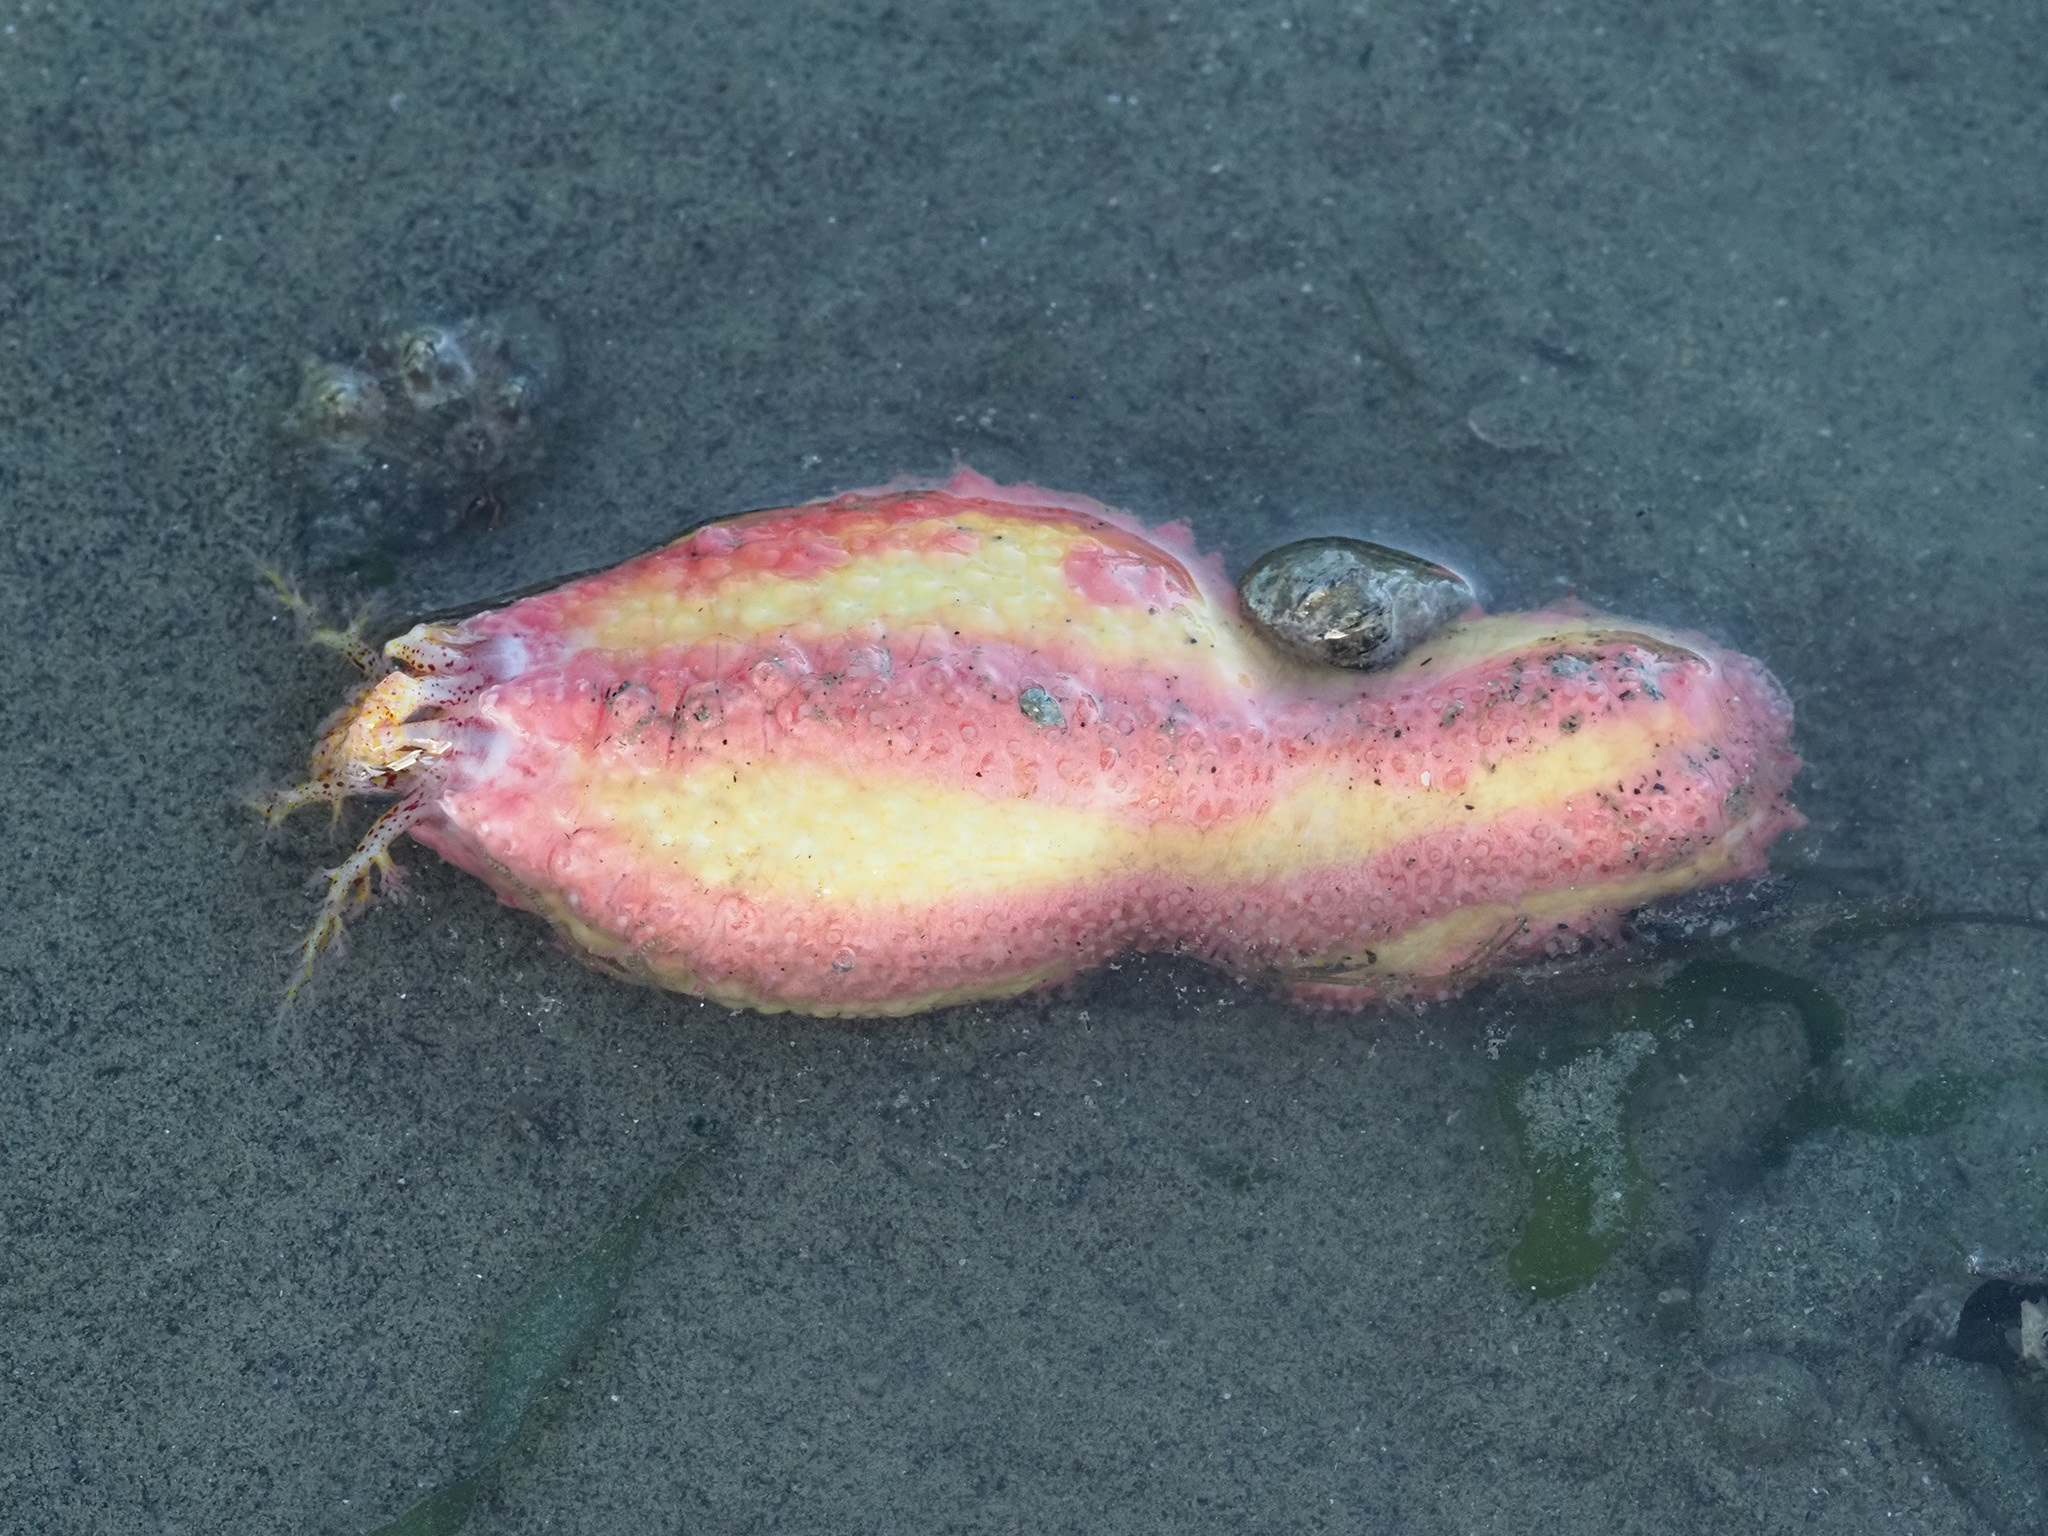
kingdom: Animalia
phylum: Echinodermata
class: Holothuroidea
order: Dendrochirotida
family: Cucumariidae
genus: Cercodemas
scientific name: Cercodemas anceps
